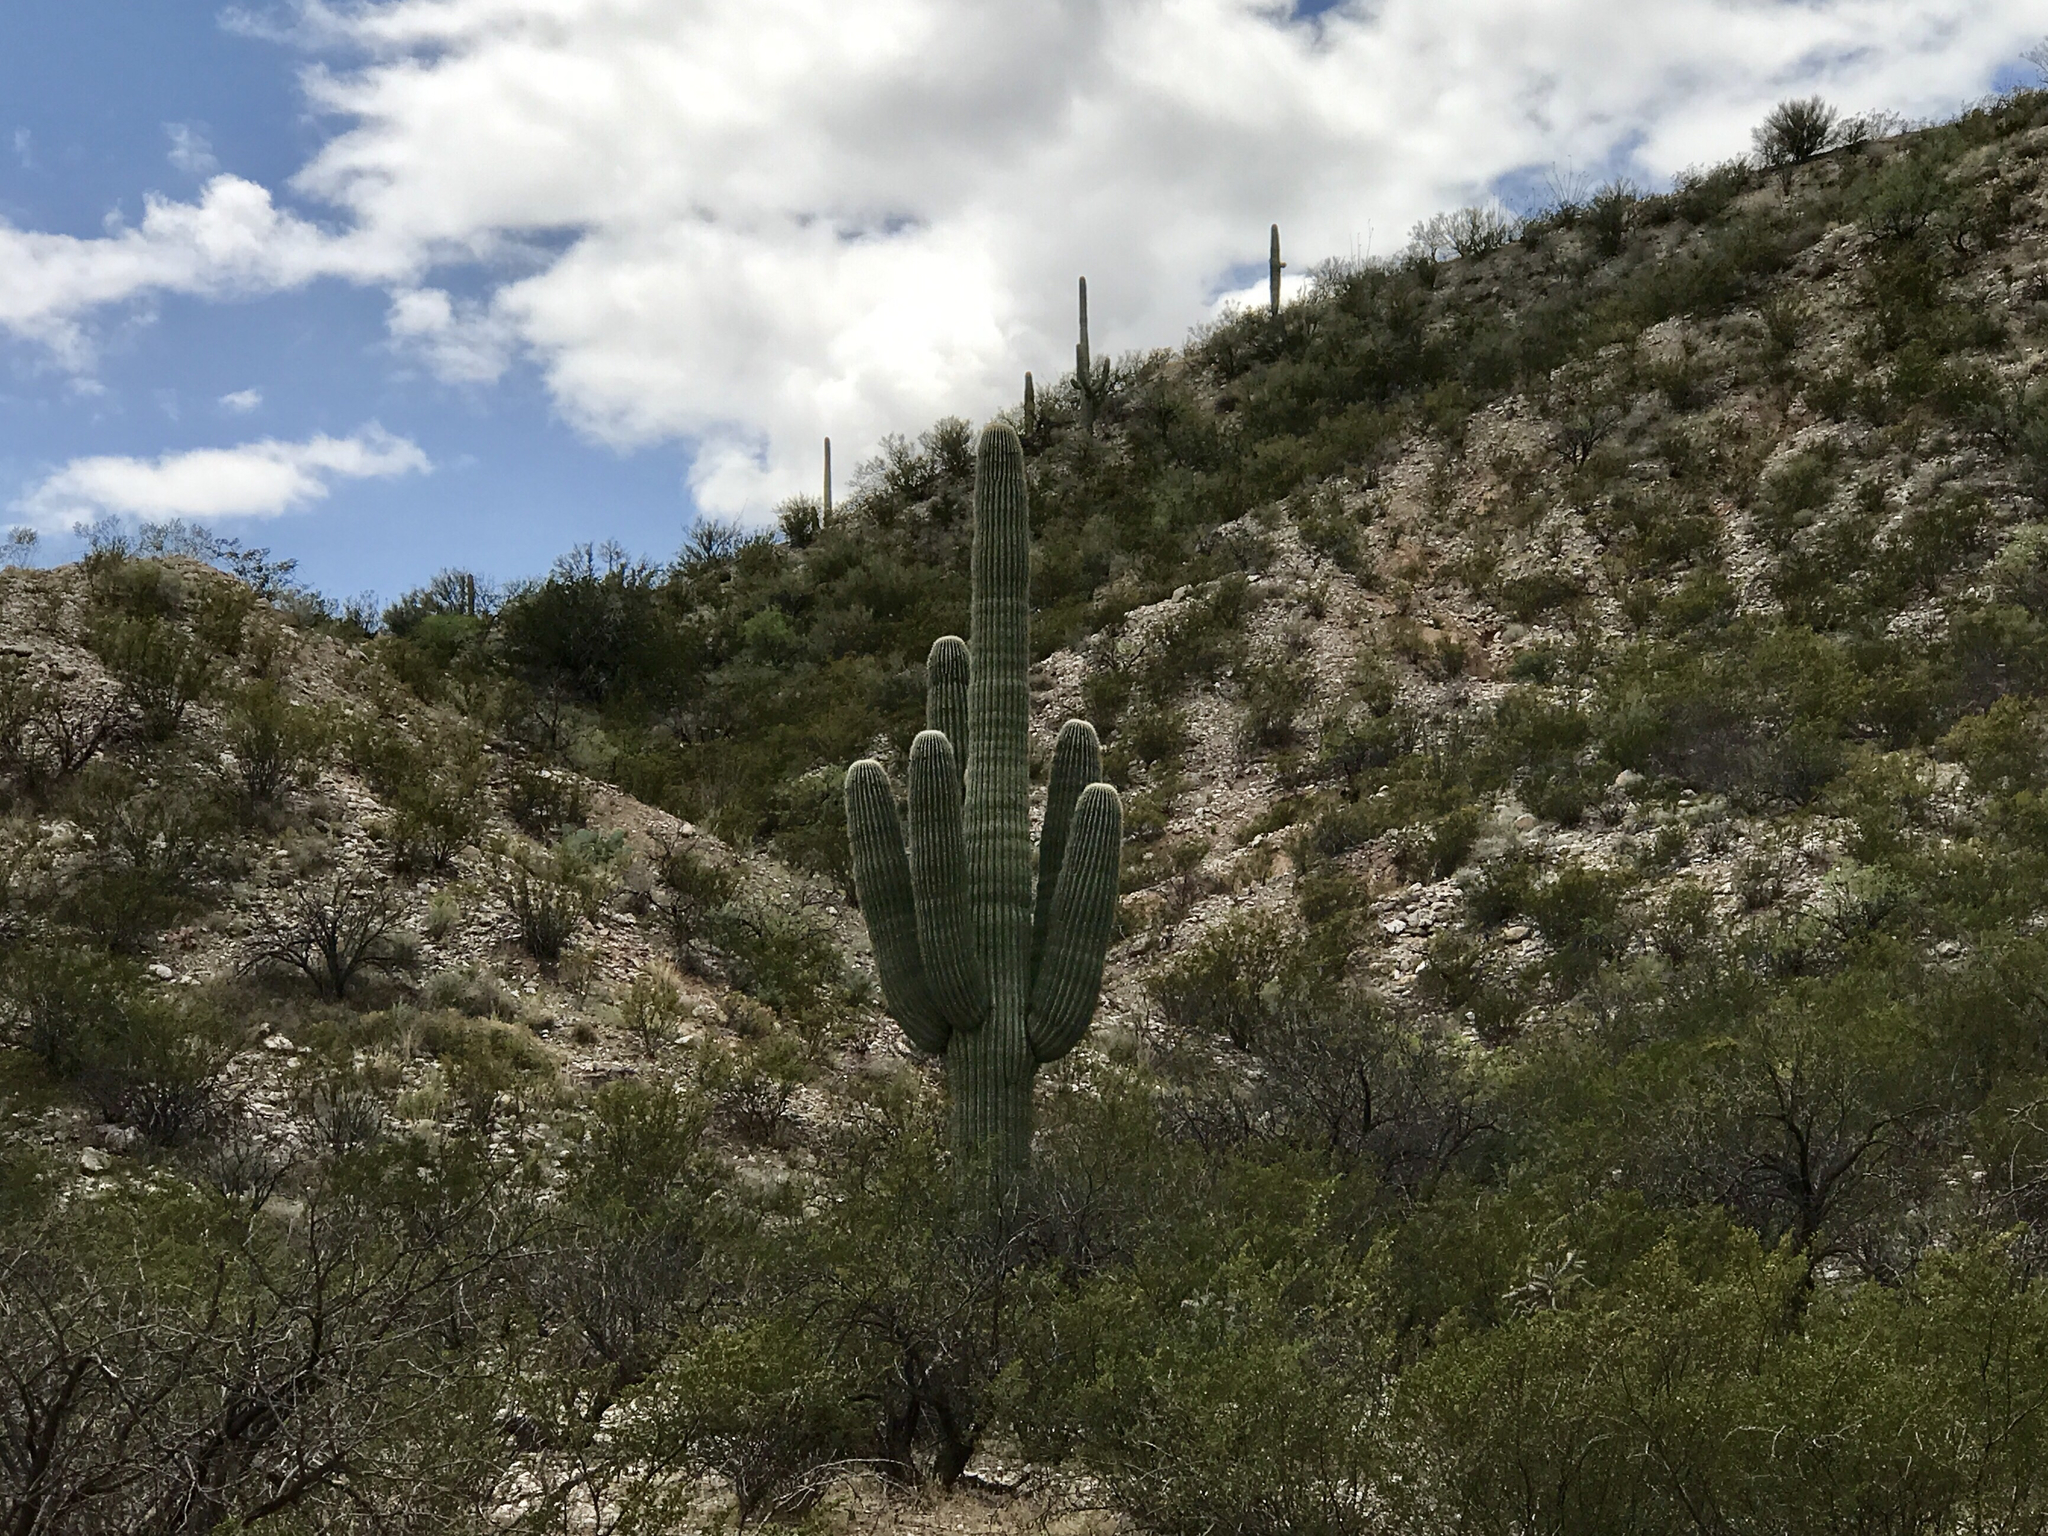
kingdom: Plantae
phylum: Tracheophyta
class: Magnoliopsida
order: Caryophyllales
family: Cactaceae
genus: Carnegiea
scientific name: Carnegiea gigantea
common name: Saguaro
